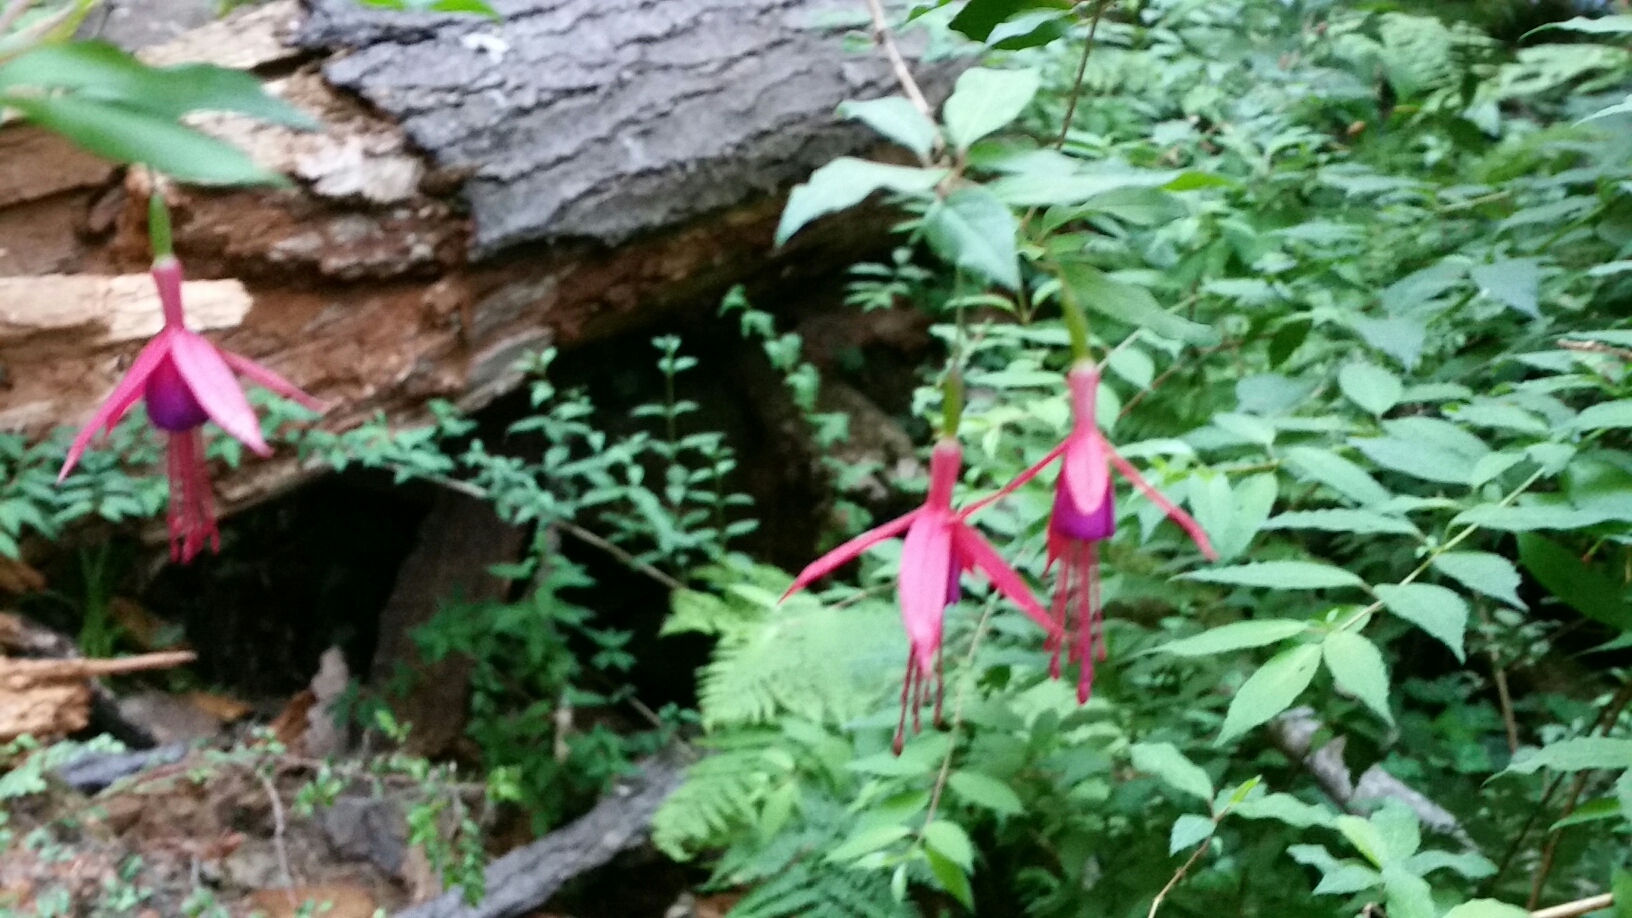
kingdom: Plantae
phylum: Tracheophyta
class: Magnoliopsida
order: Myrtales
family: Onagraceae
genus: Fuchsia
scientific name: Fuchsia magellanica
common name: Hardy fuchsia
